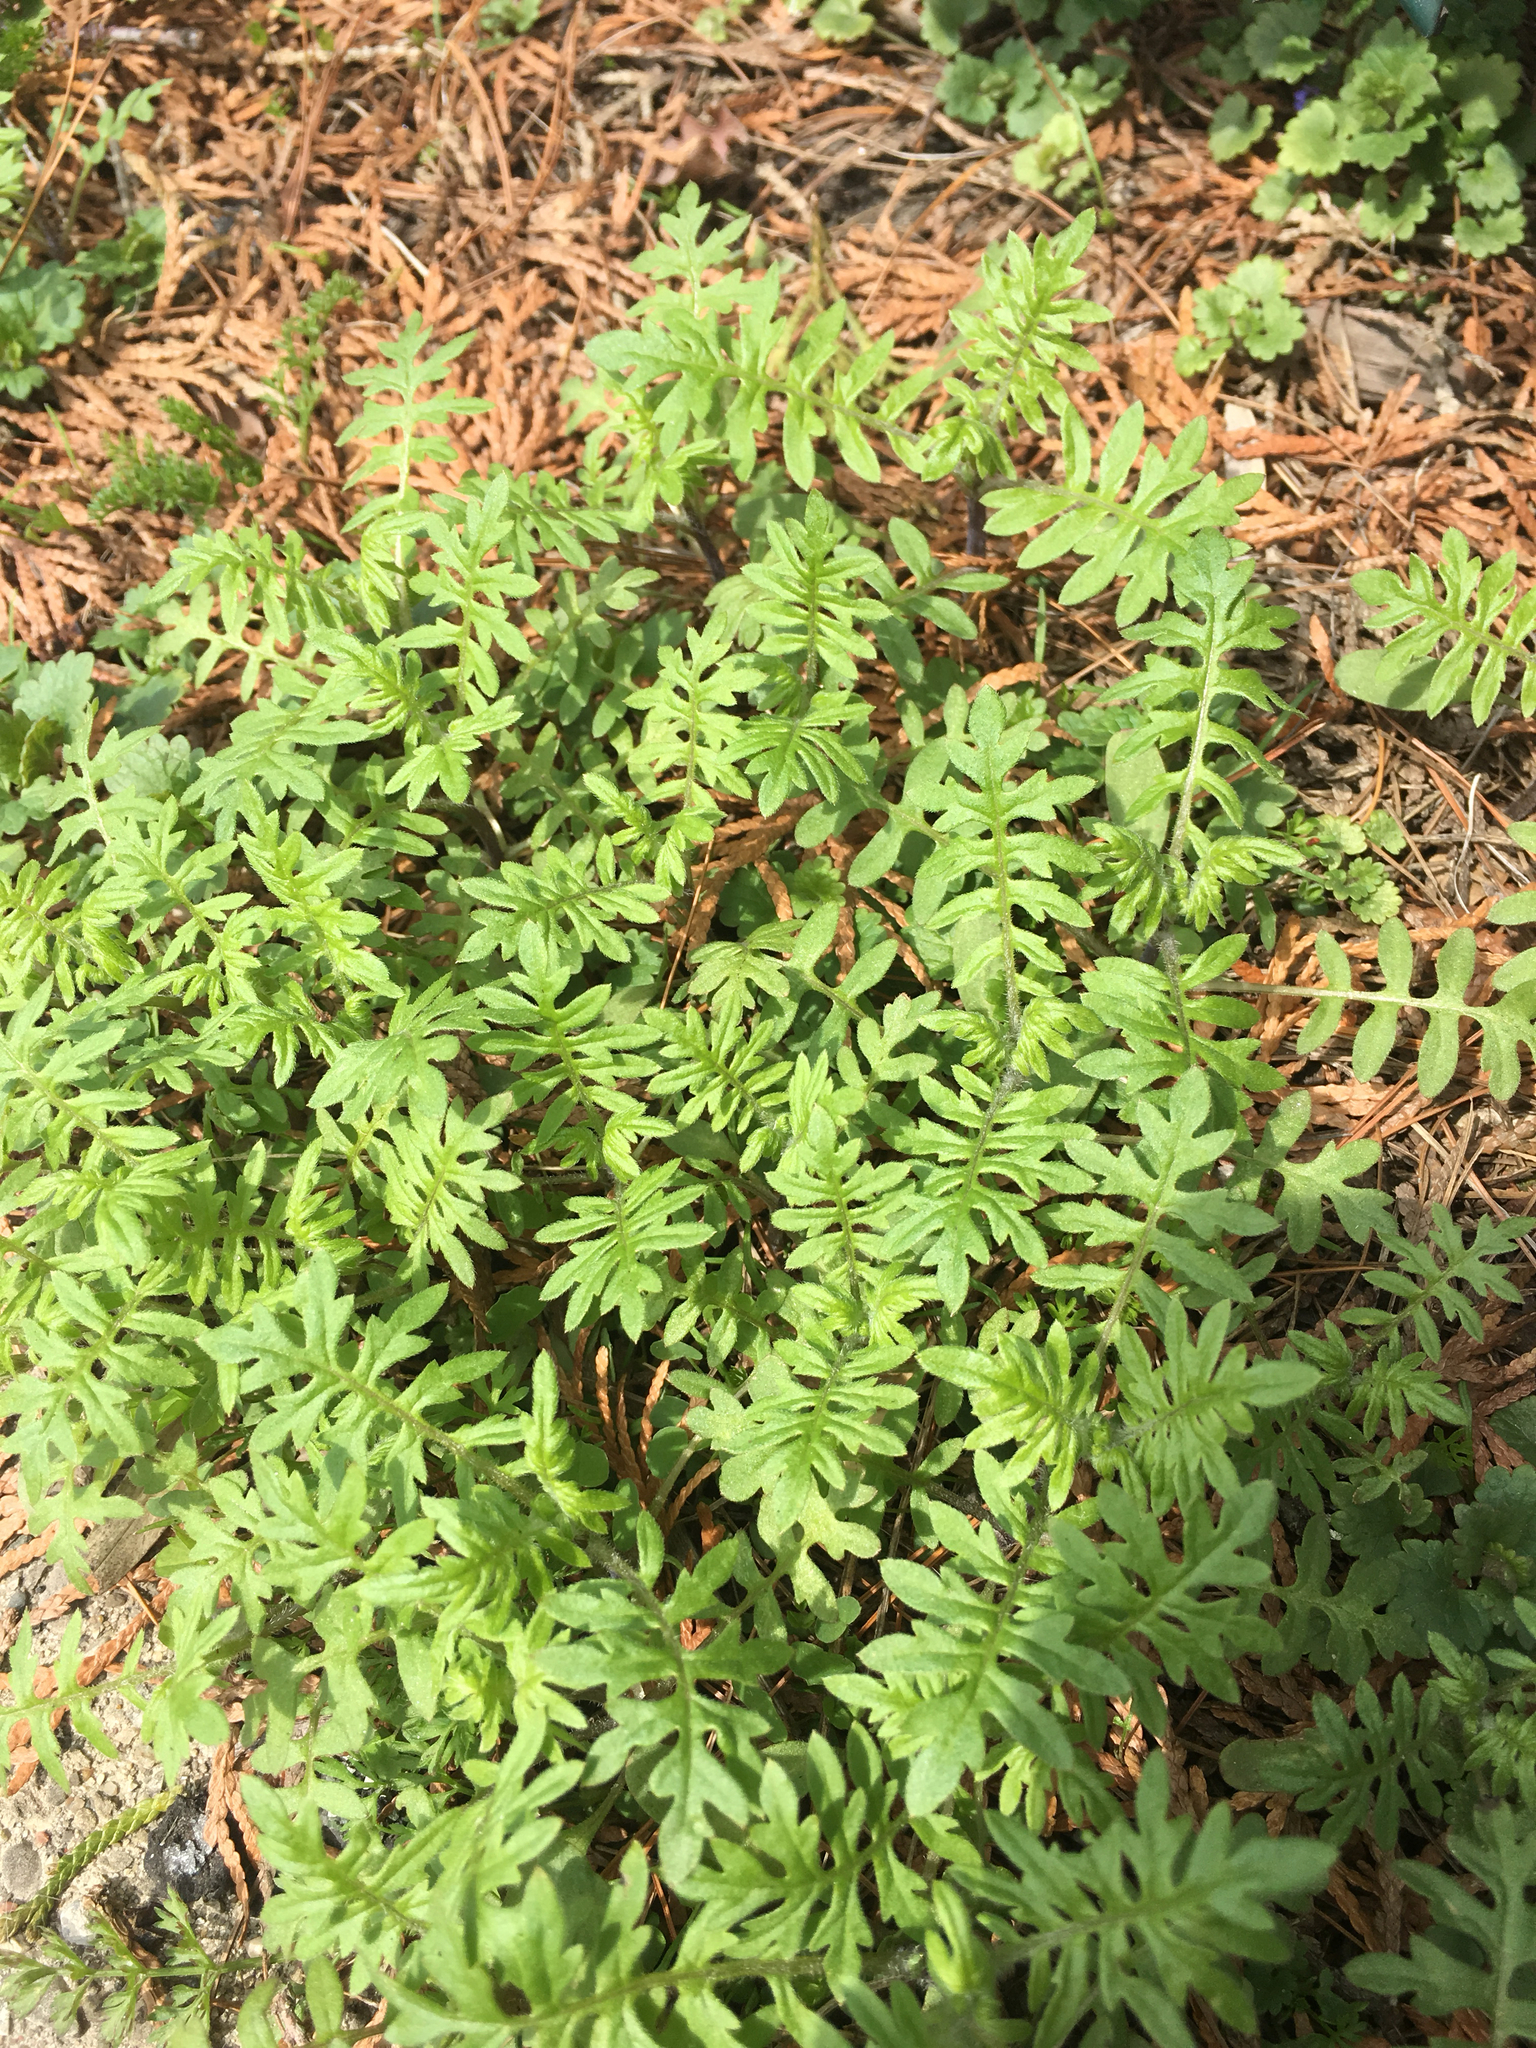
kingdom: Plantae
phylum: Tracheophyta
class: Magnoliopsida
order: Boraginales
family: Hydrophyllaceae
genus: Ellisia
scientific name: Ellisia nyctelea
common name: Aunt lucy
